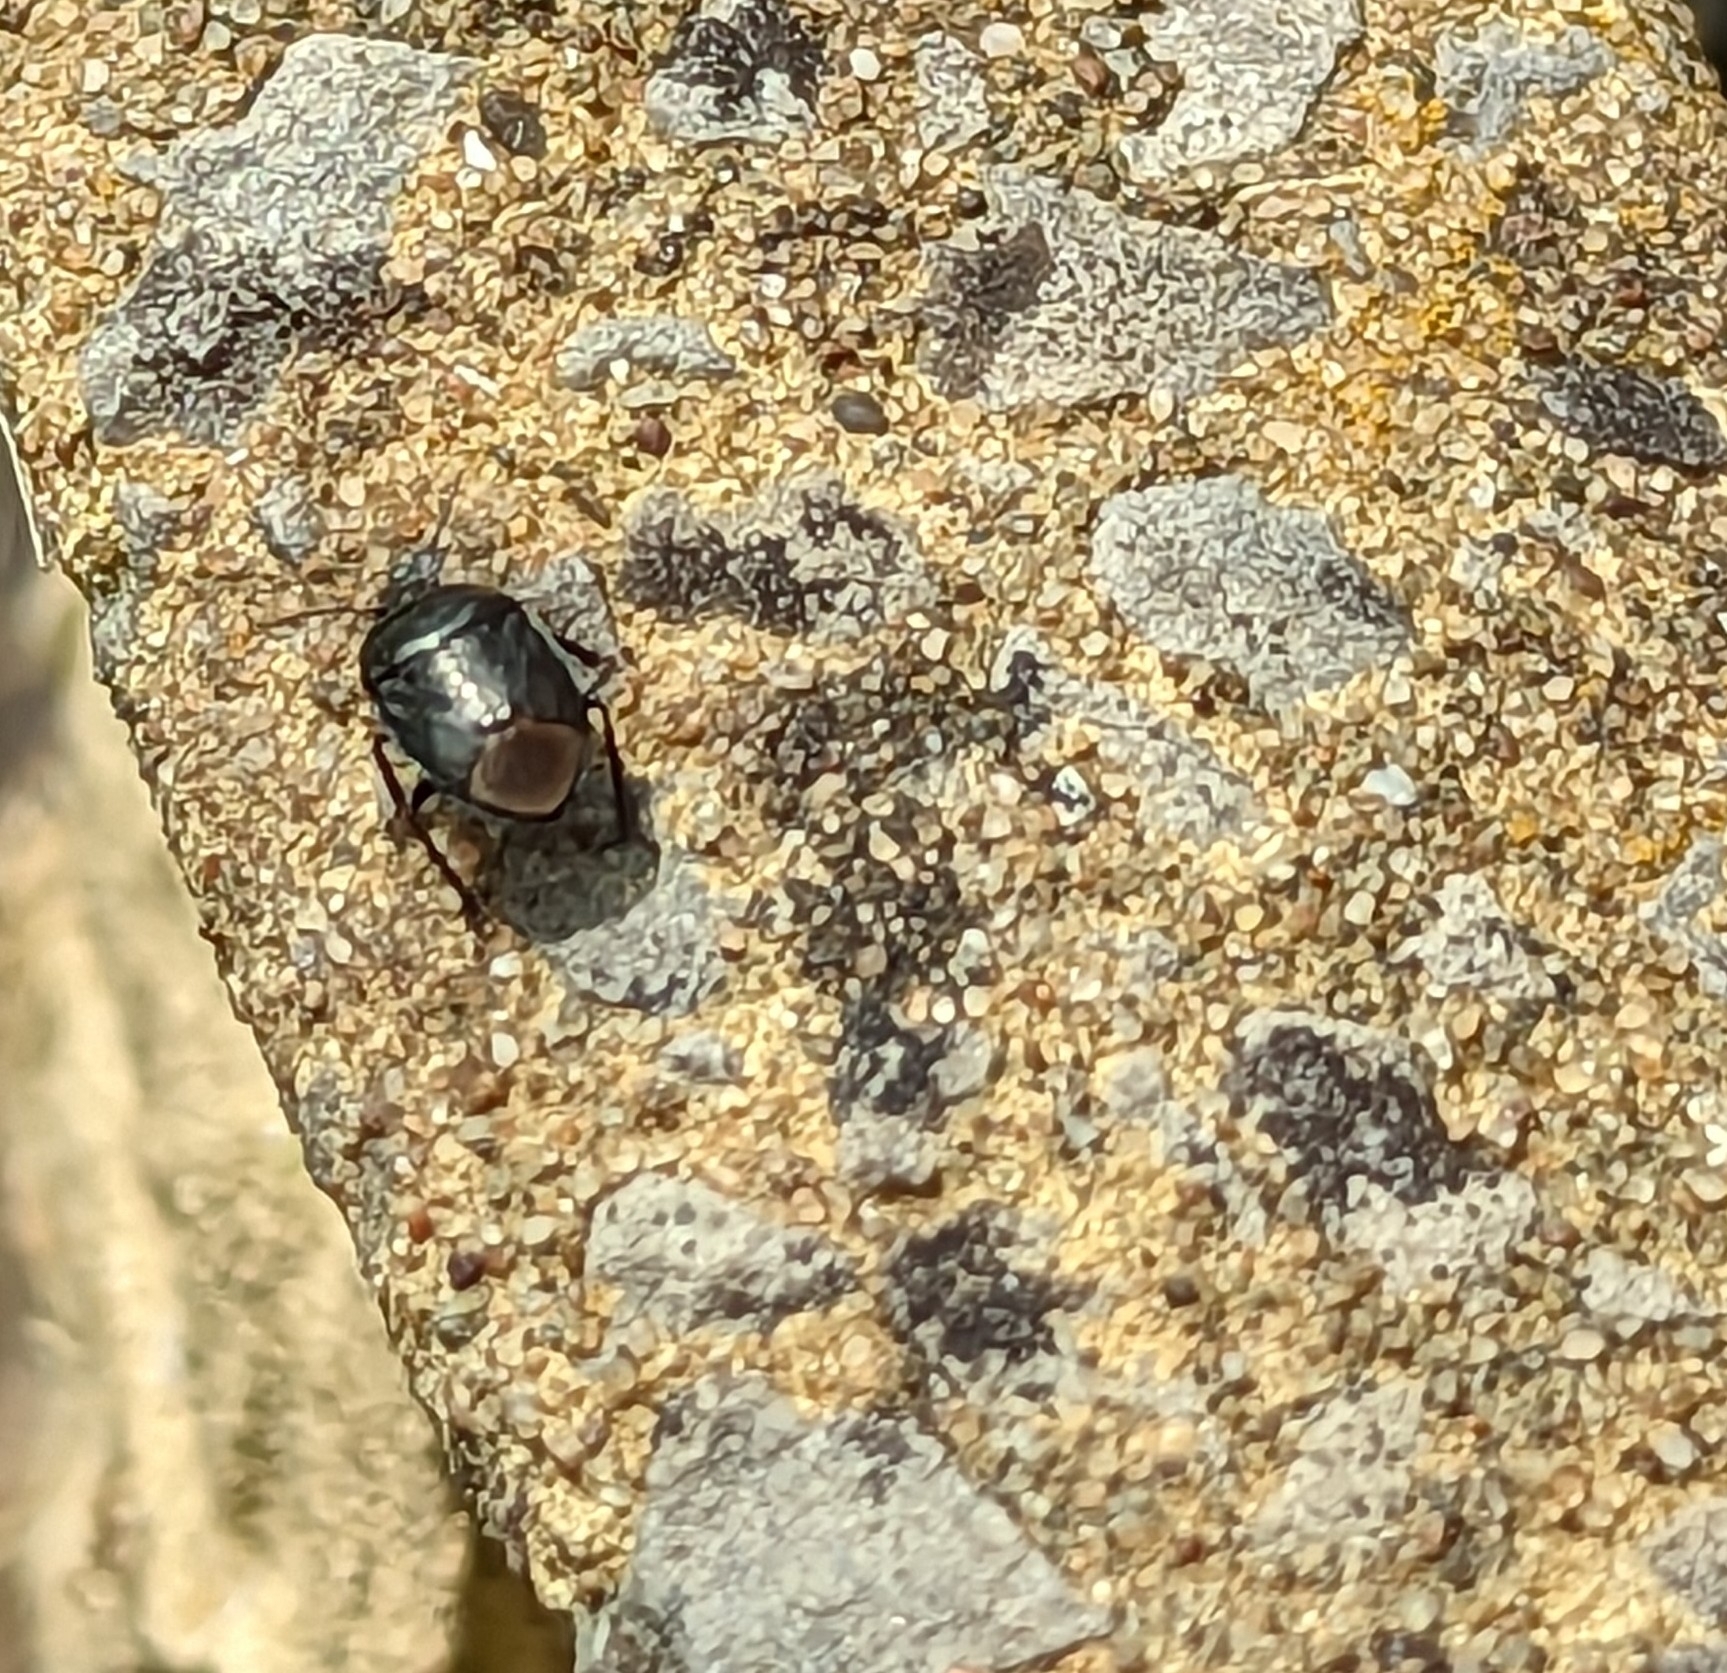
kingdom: Animalia
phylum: Arthropoda
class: Insecta
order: Hemiptera
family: Cydnidae
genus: Sehirus
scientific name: Sehirus luctuosus
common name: Forget-me-not shieldbug
